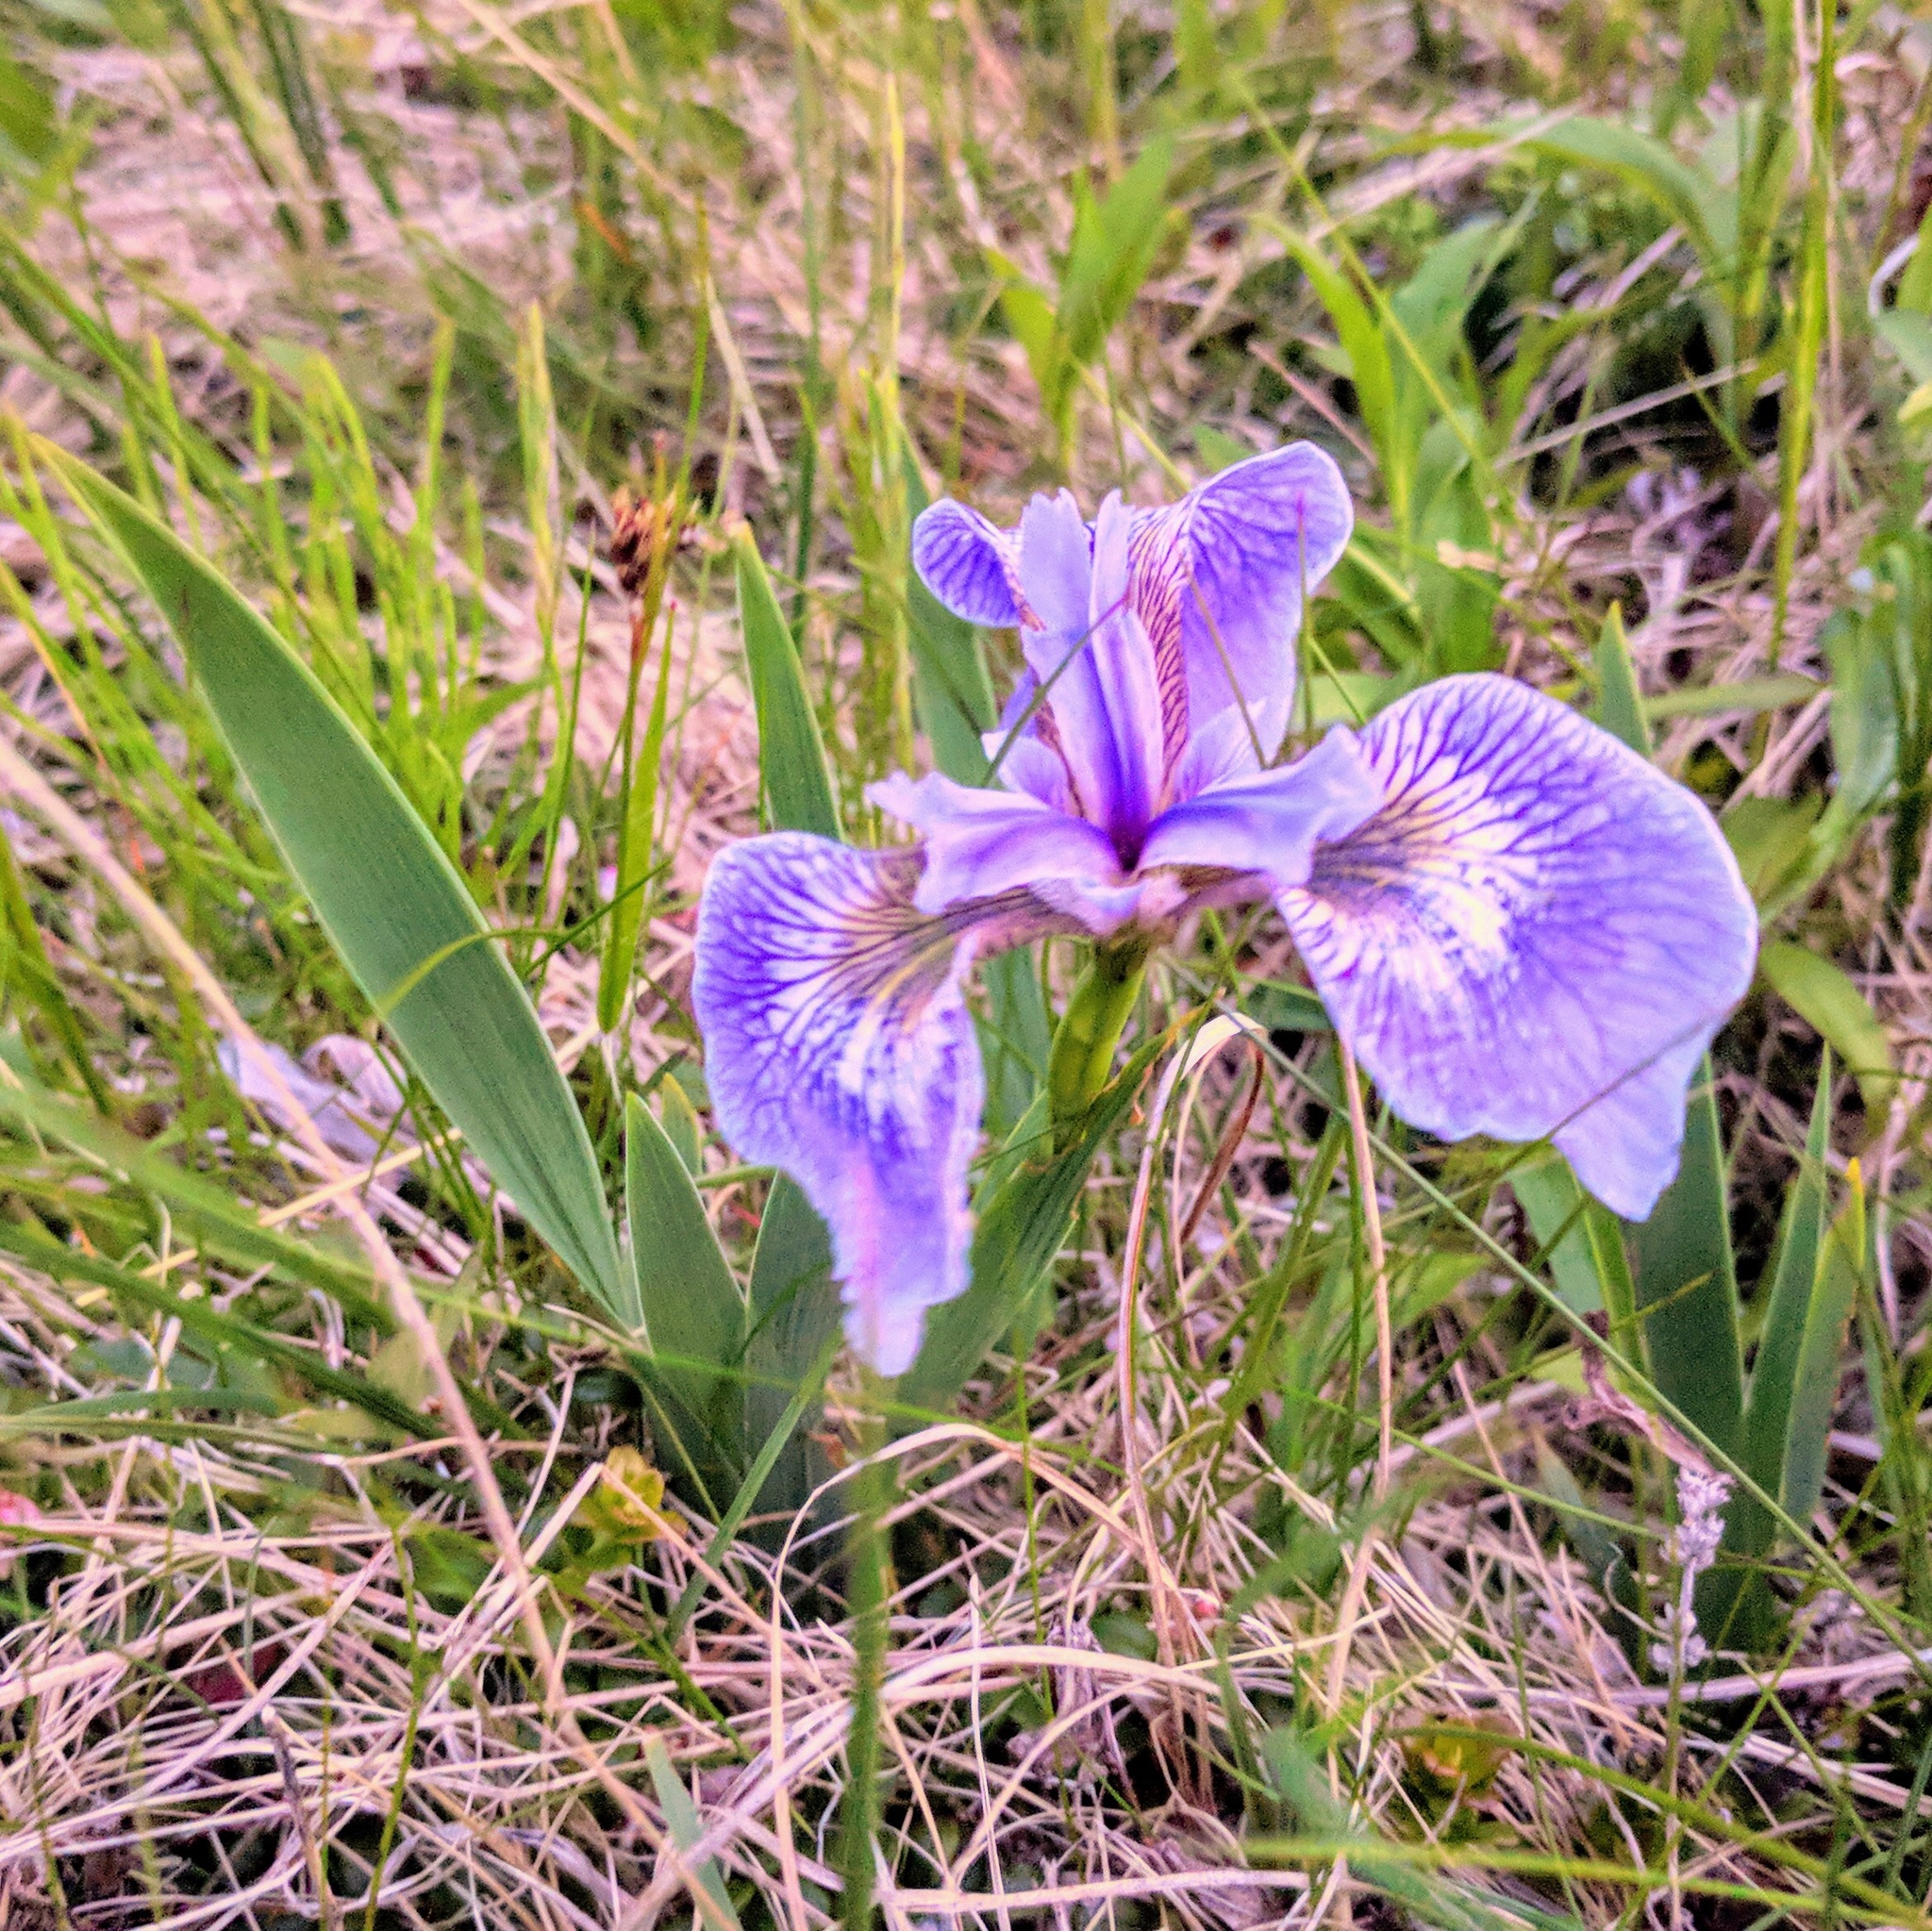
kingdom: Plantae
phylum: Tracheophyta
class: Liliopsida
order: Asparagales
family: Iridaceae
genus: Iris
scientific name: Iris hookeri
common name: Canada beach-head iris
